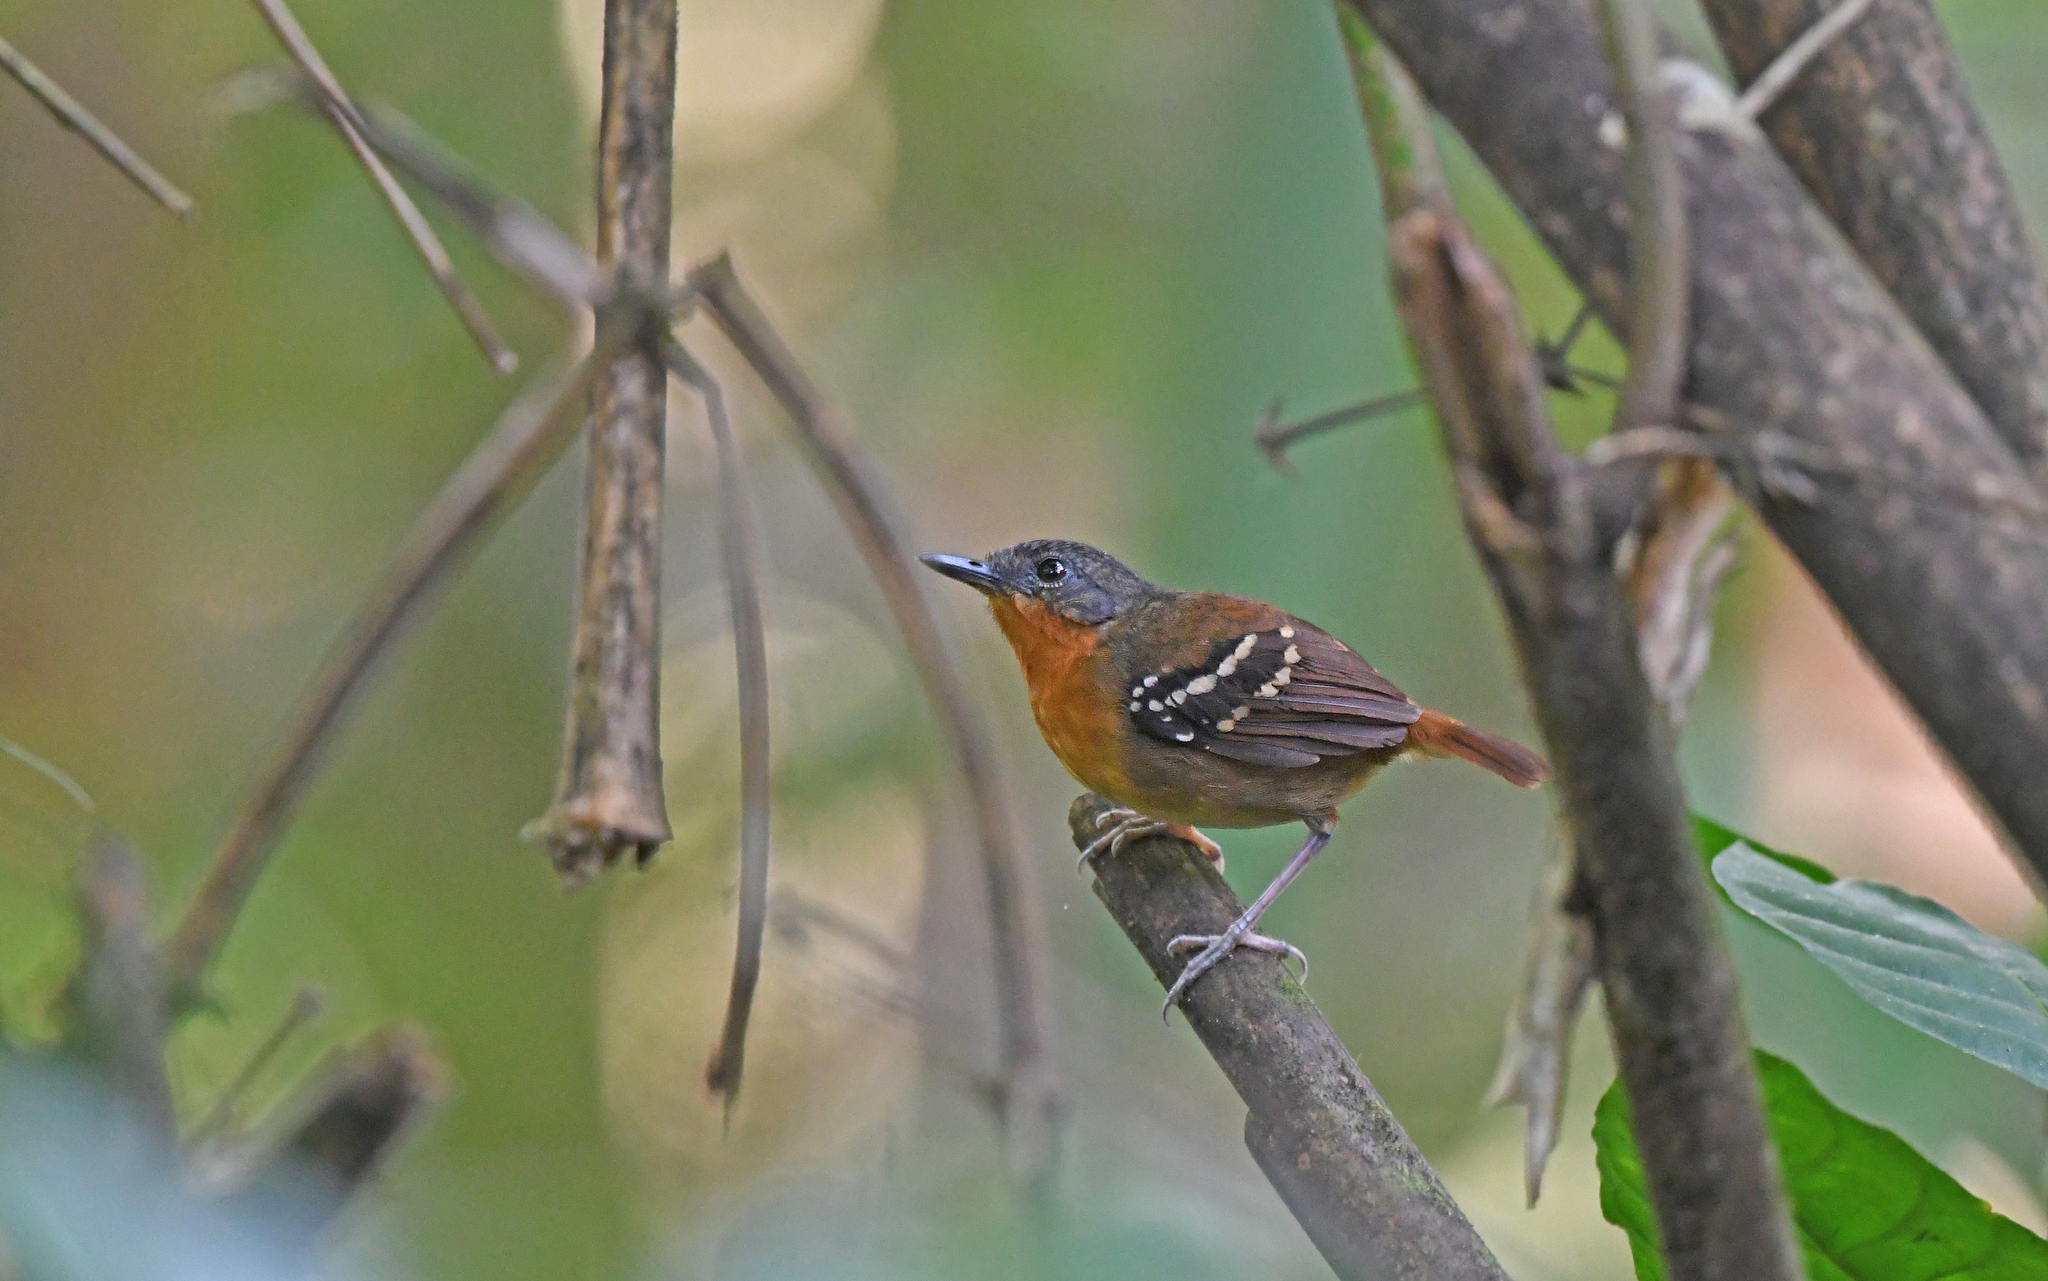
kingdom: Animalia
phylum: Chordata
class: Aves
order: Passeriformes
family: Thamnophilidae
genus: Myrmeciza
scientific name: Myrmeciza hemimelaena
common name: Southern chestnut-tailed antbird
